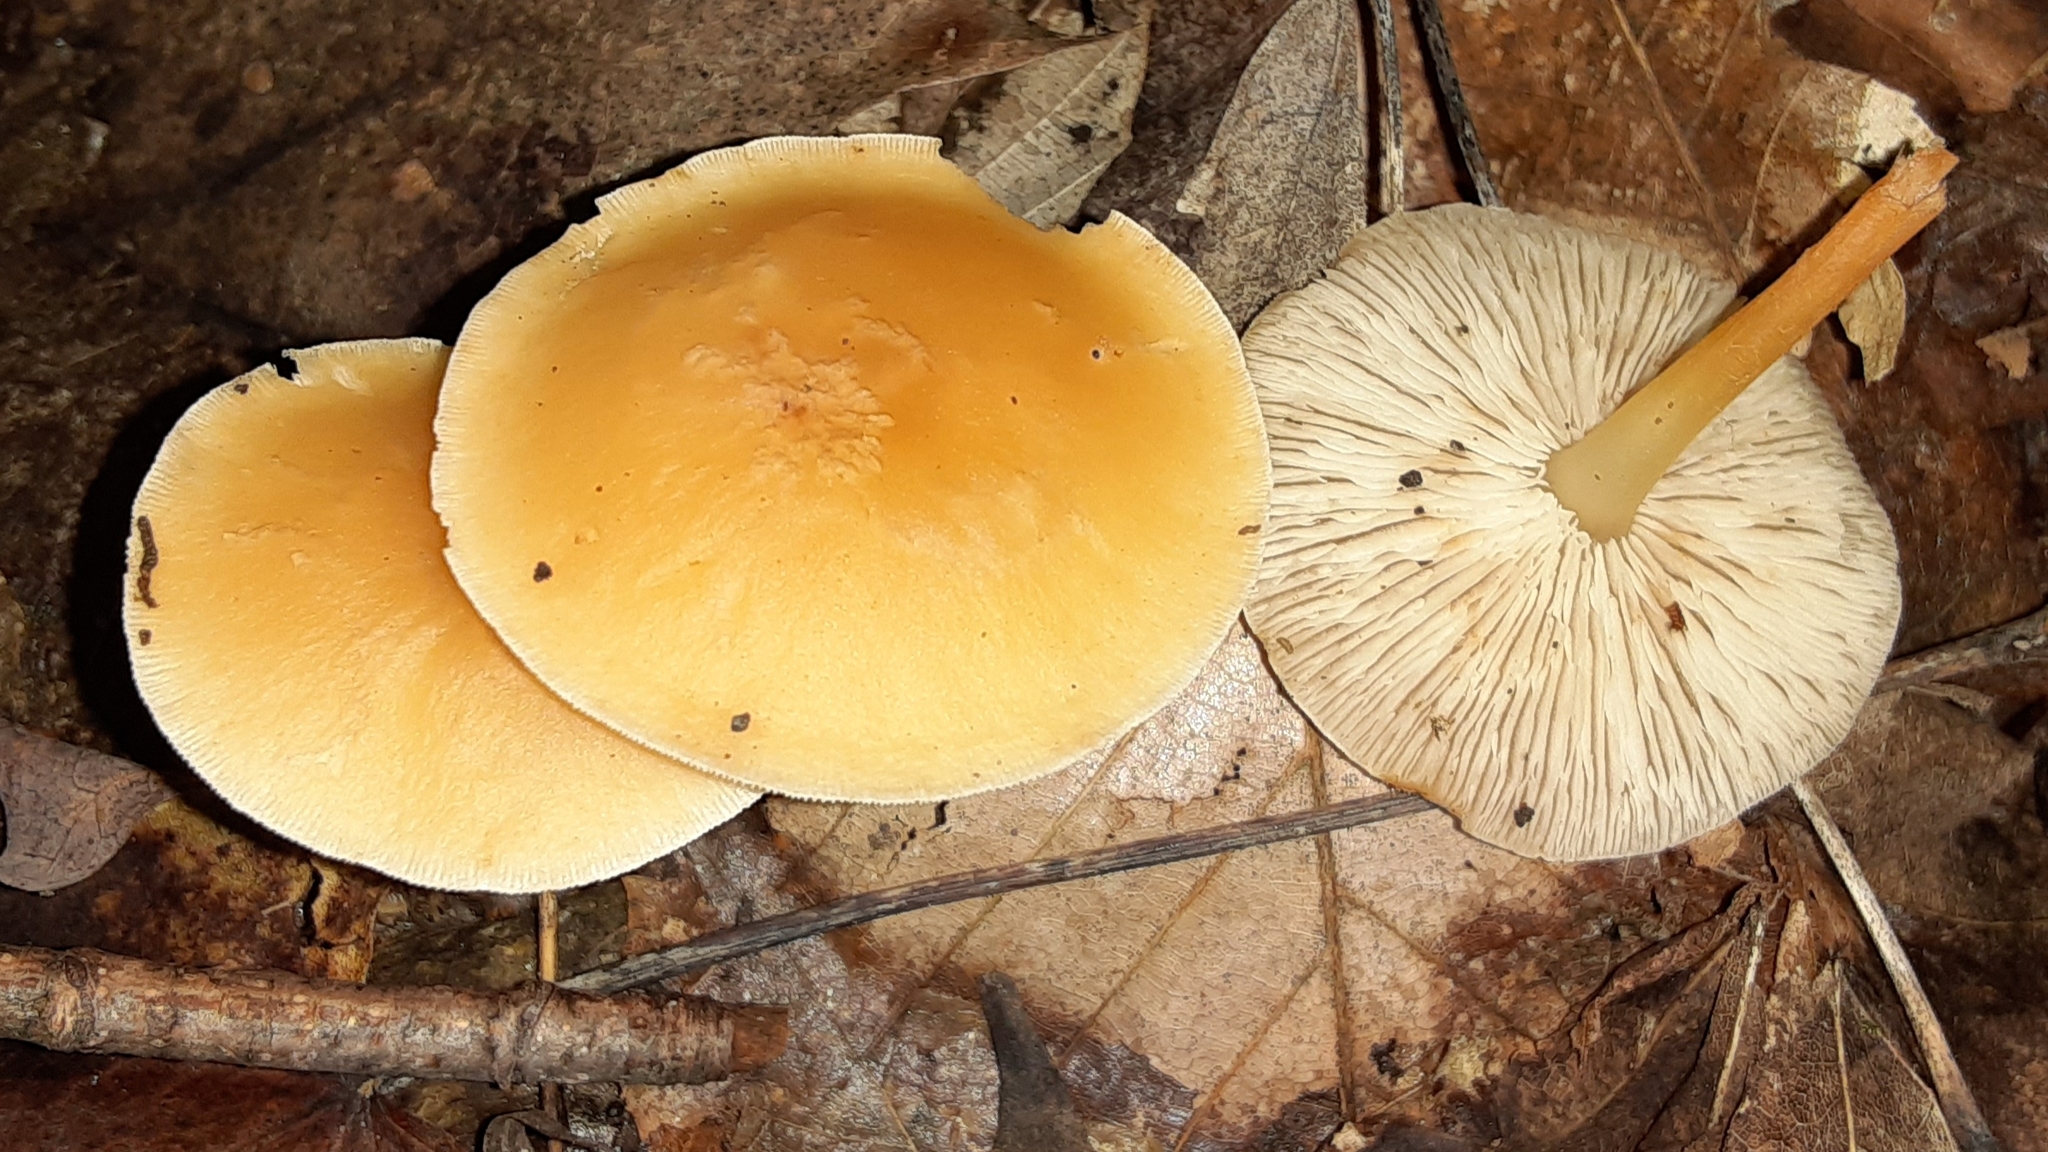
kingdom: Fungi
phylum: Basidiomycota
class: Agaricomycetes
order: Agaricales
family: Omphalotaceae
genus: Gymnopus
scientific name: Gymnopus dryophilus
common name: Penny top
